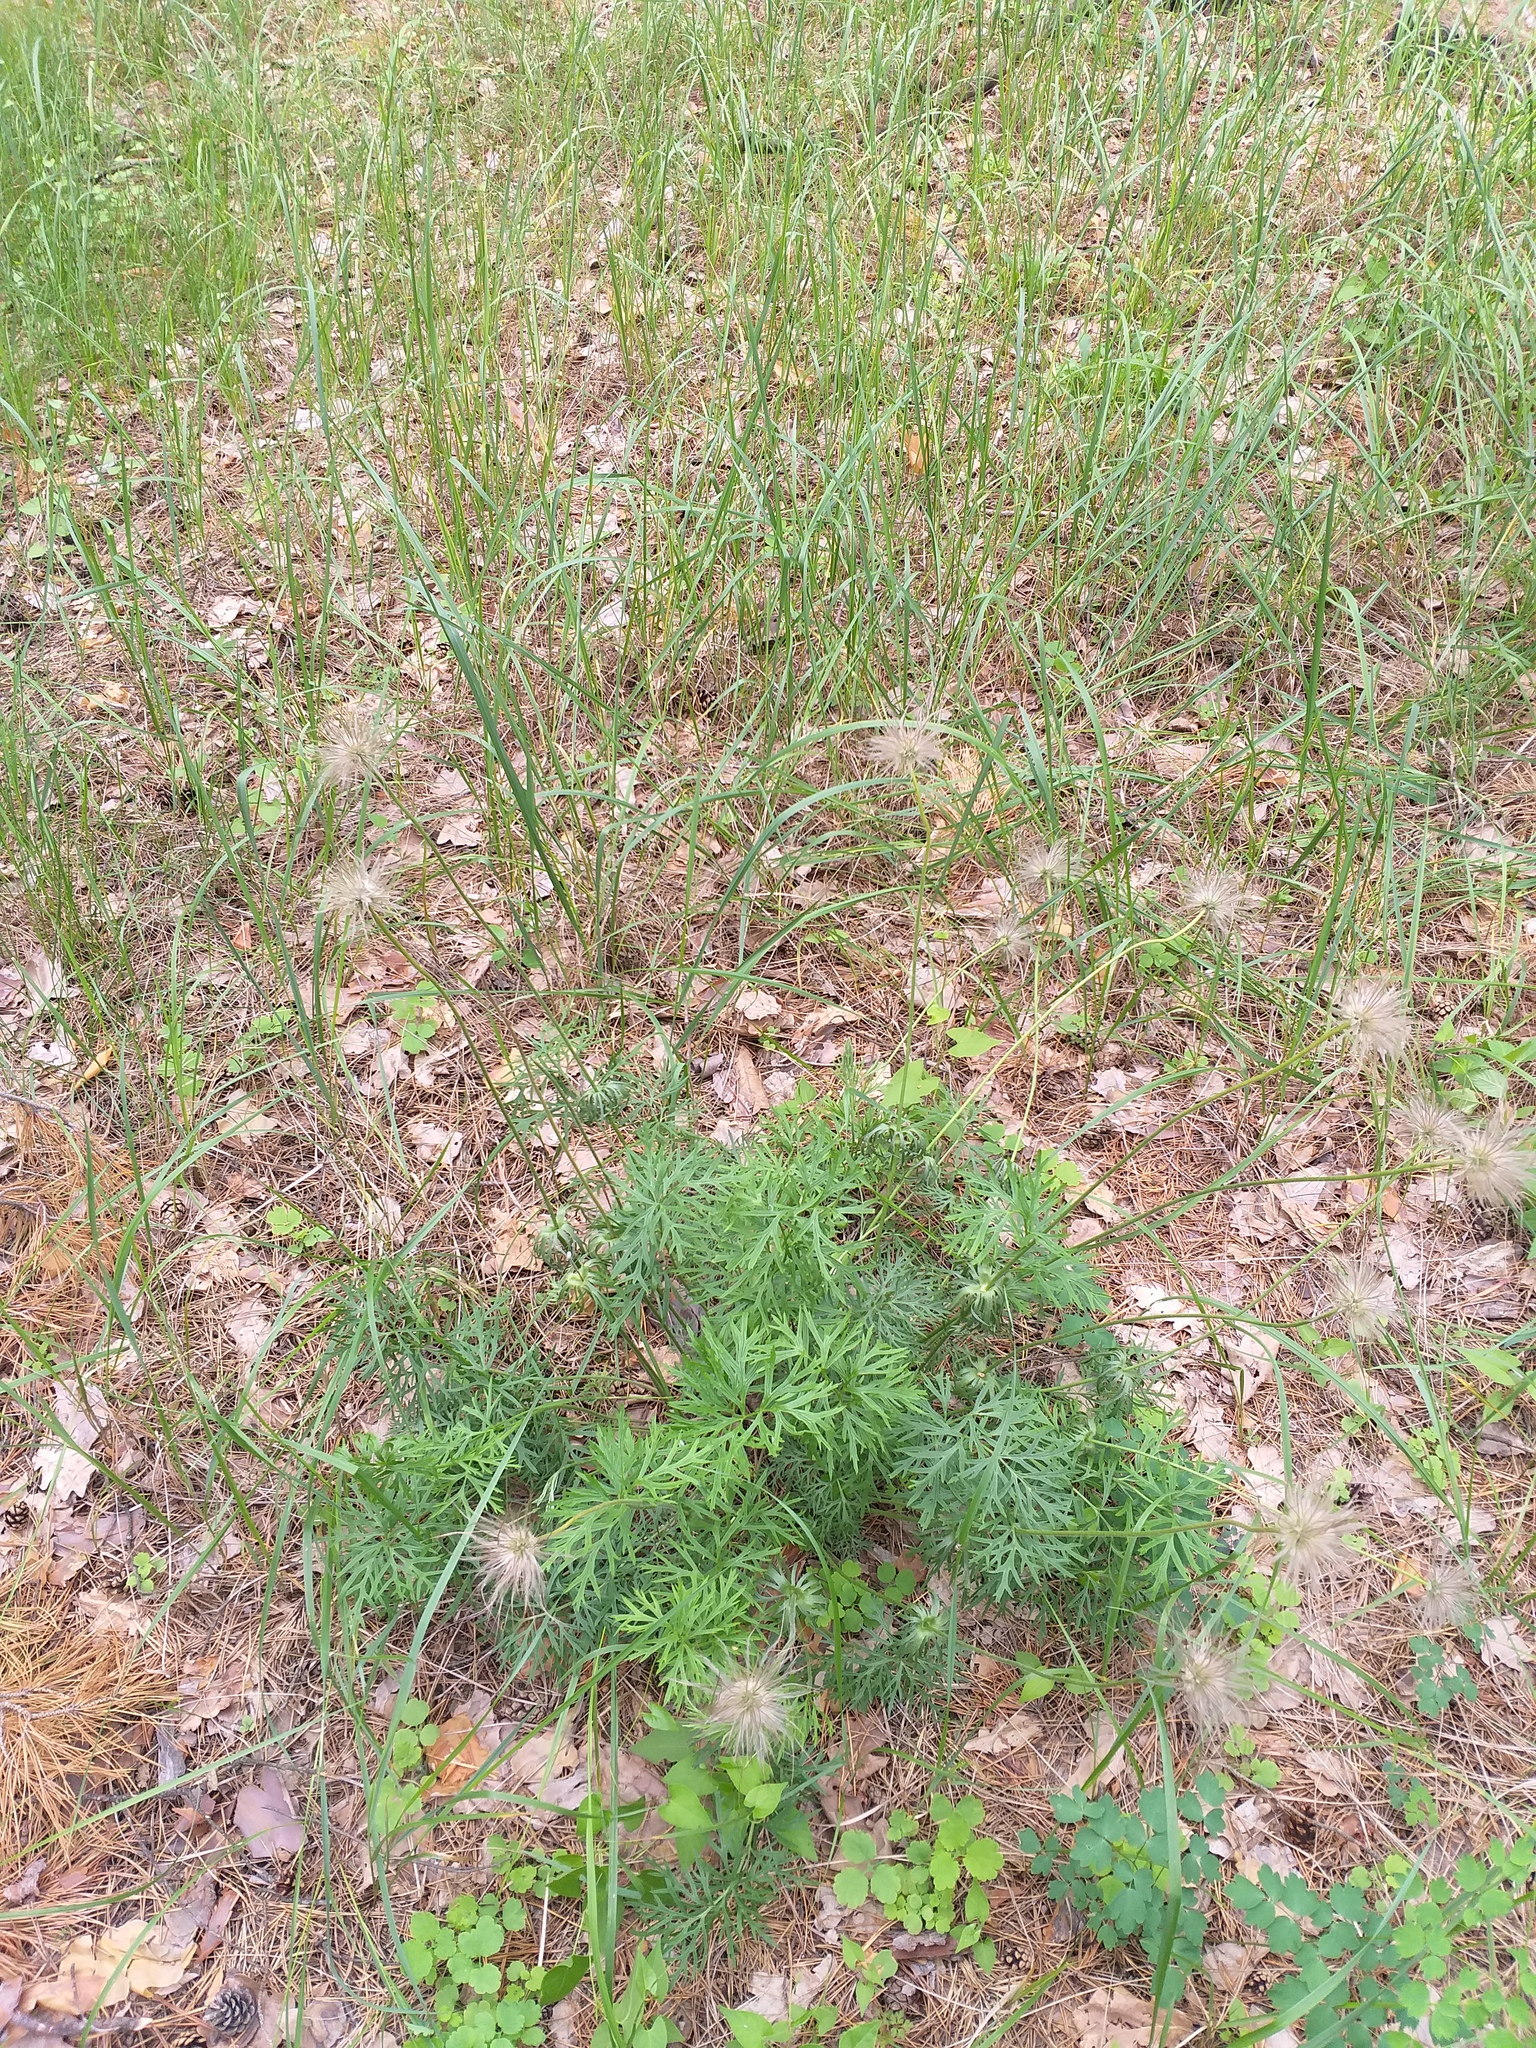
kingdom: Plantae
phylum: Tracheophyta
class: Magnoliopsida
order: Ranunculales
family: Ranunculaceae
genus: Pulsatilla
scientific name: Pulsatilla pratensis
